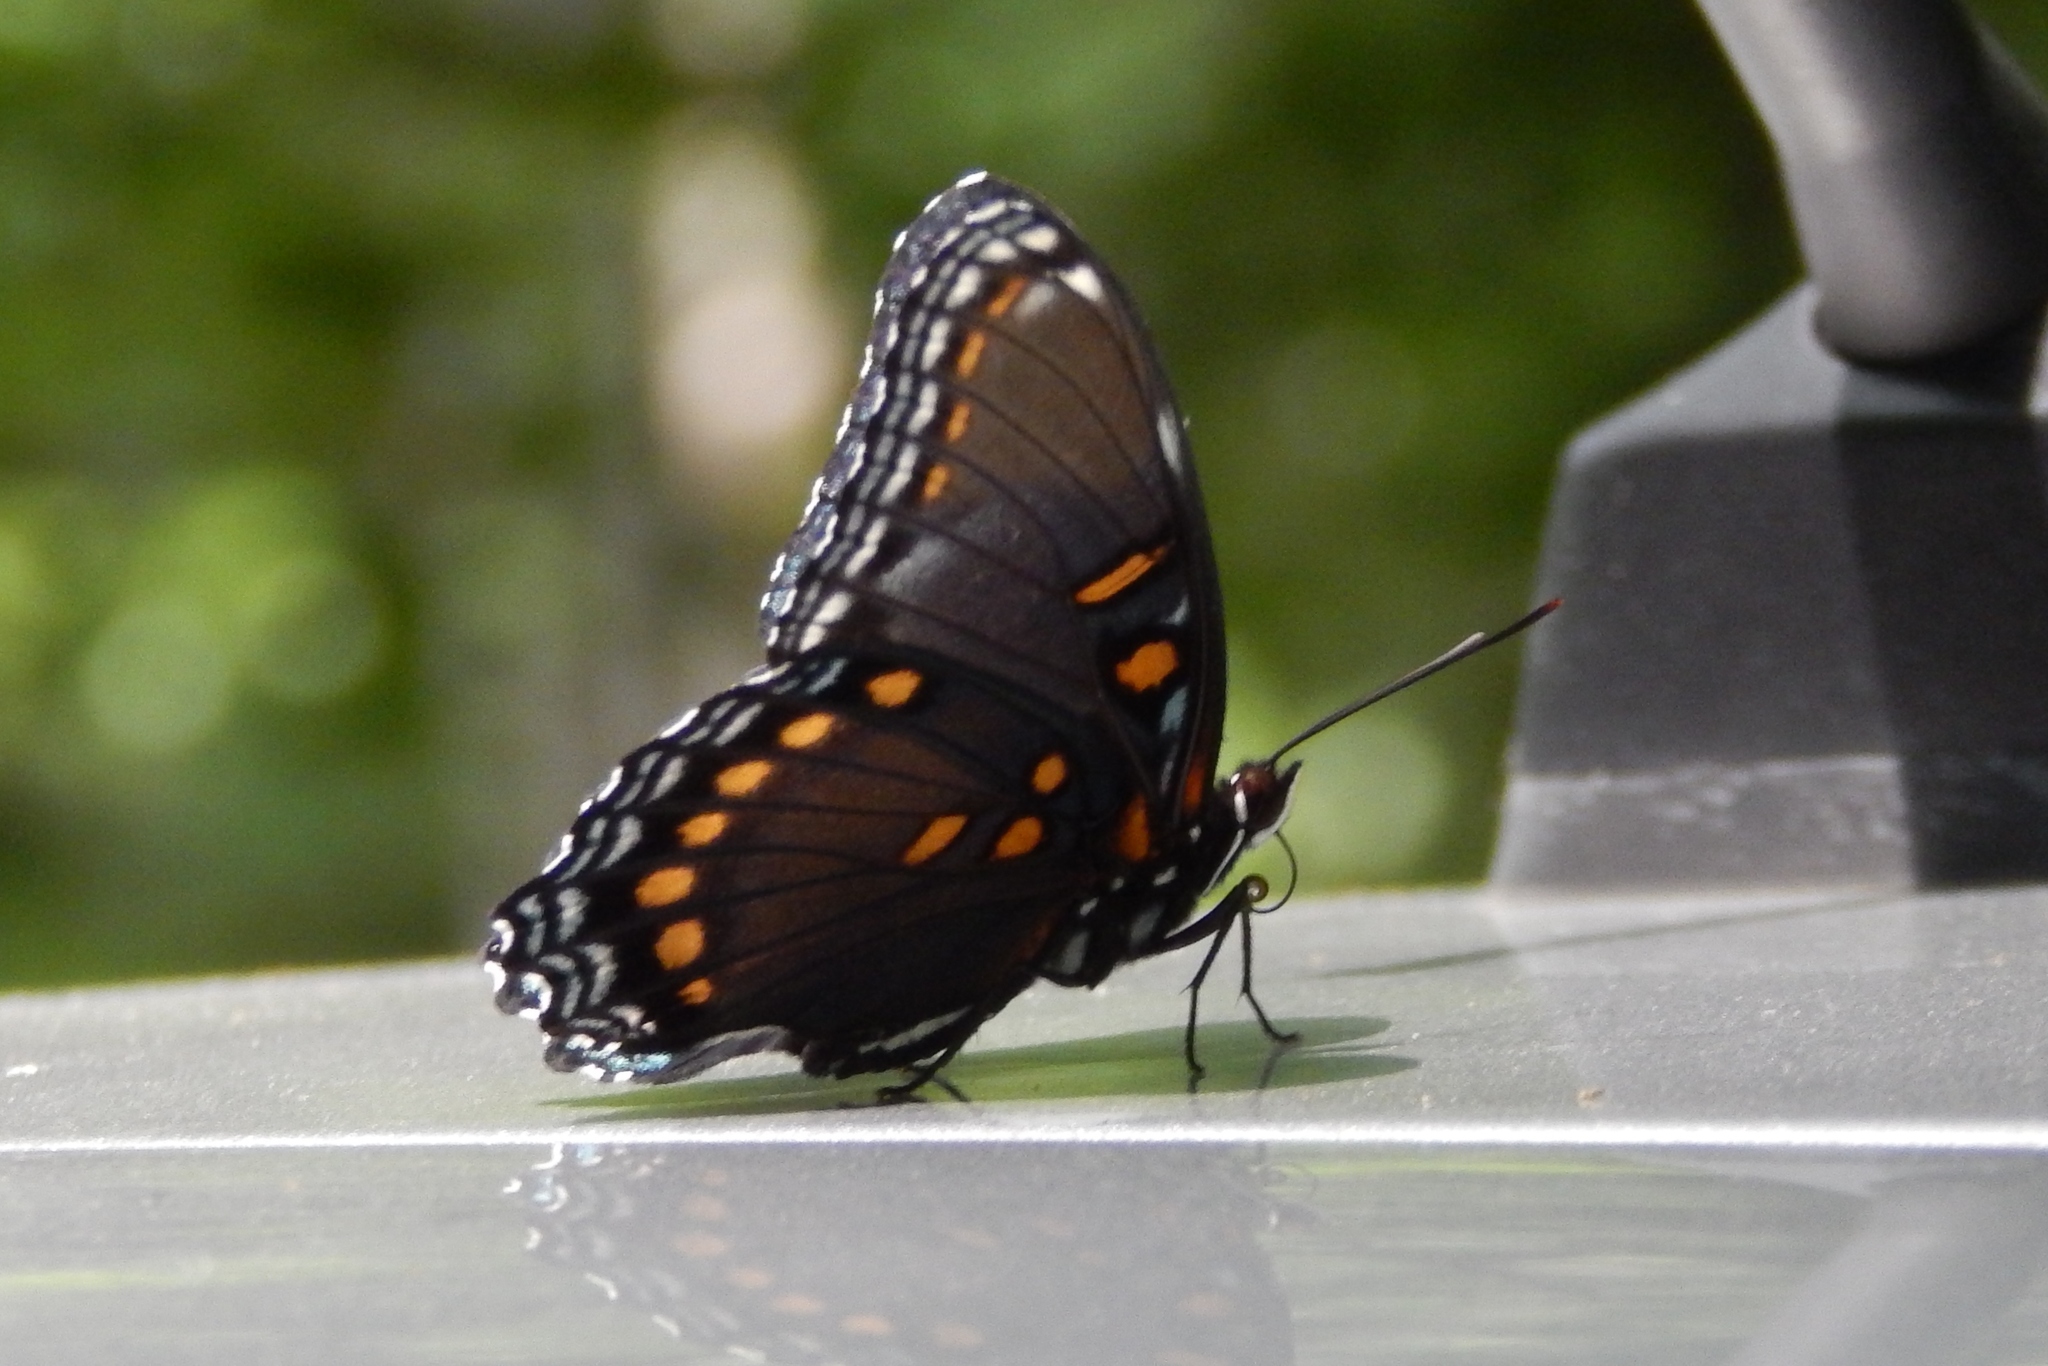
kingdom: Animalia
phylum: Arthropoda
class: Insecta
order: Lepidoptera
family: Nymphalidae
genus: Limenitis
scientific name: Limenitis astyanax
